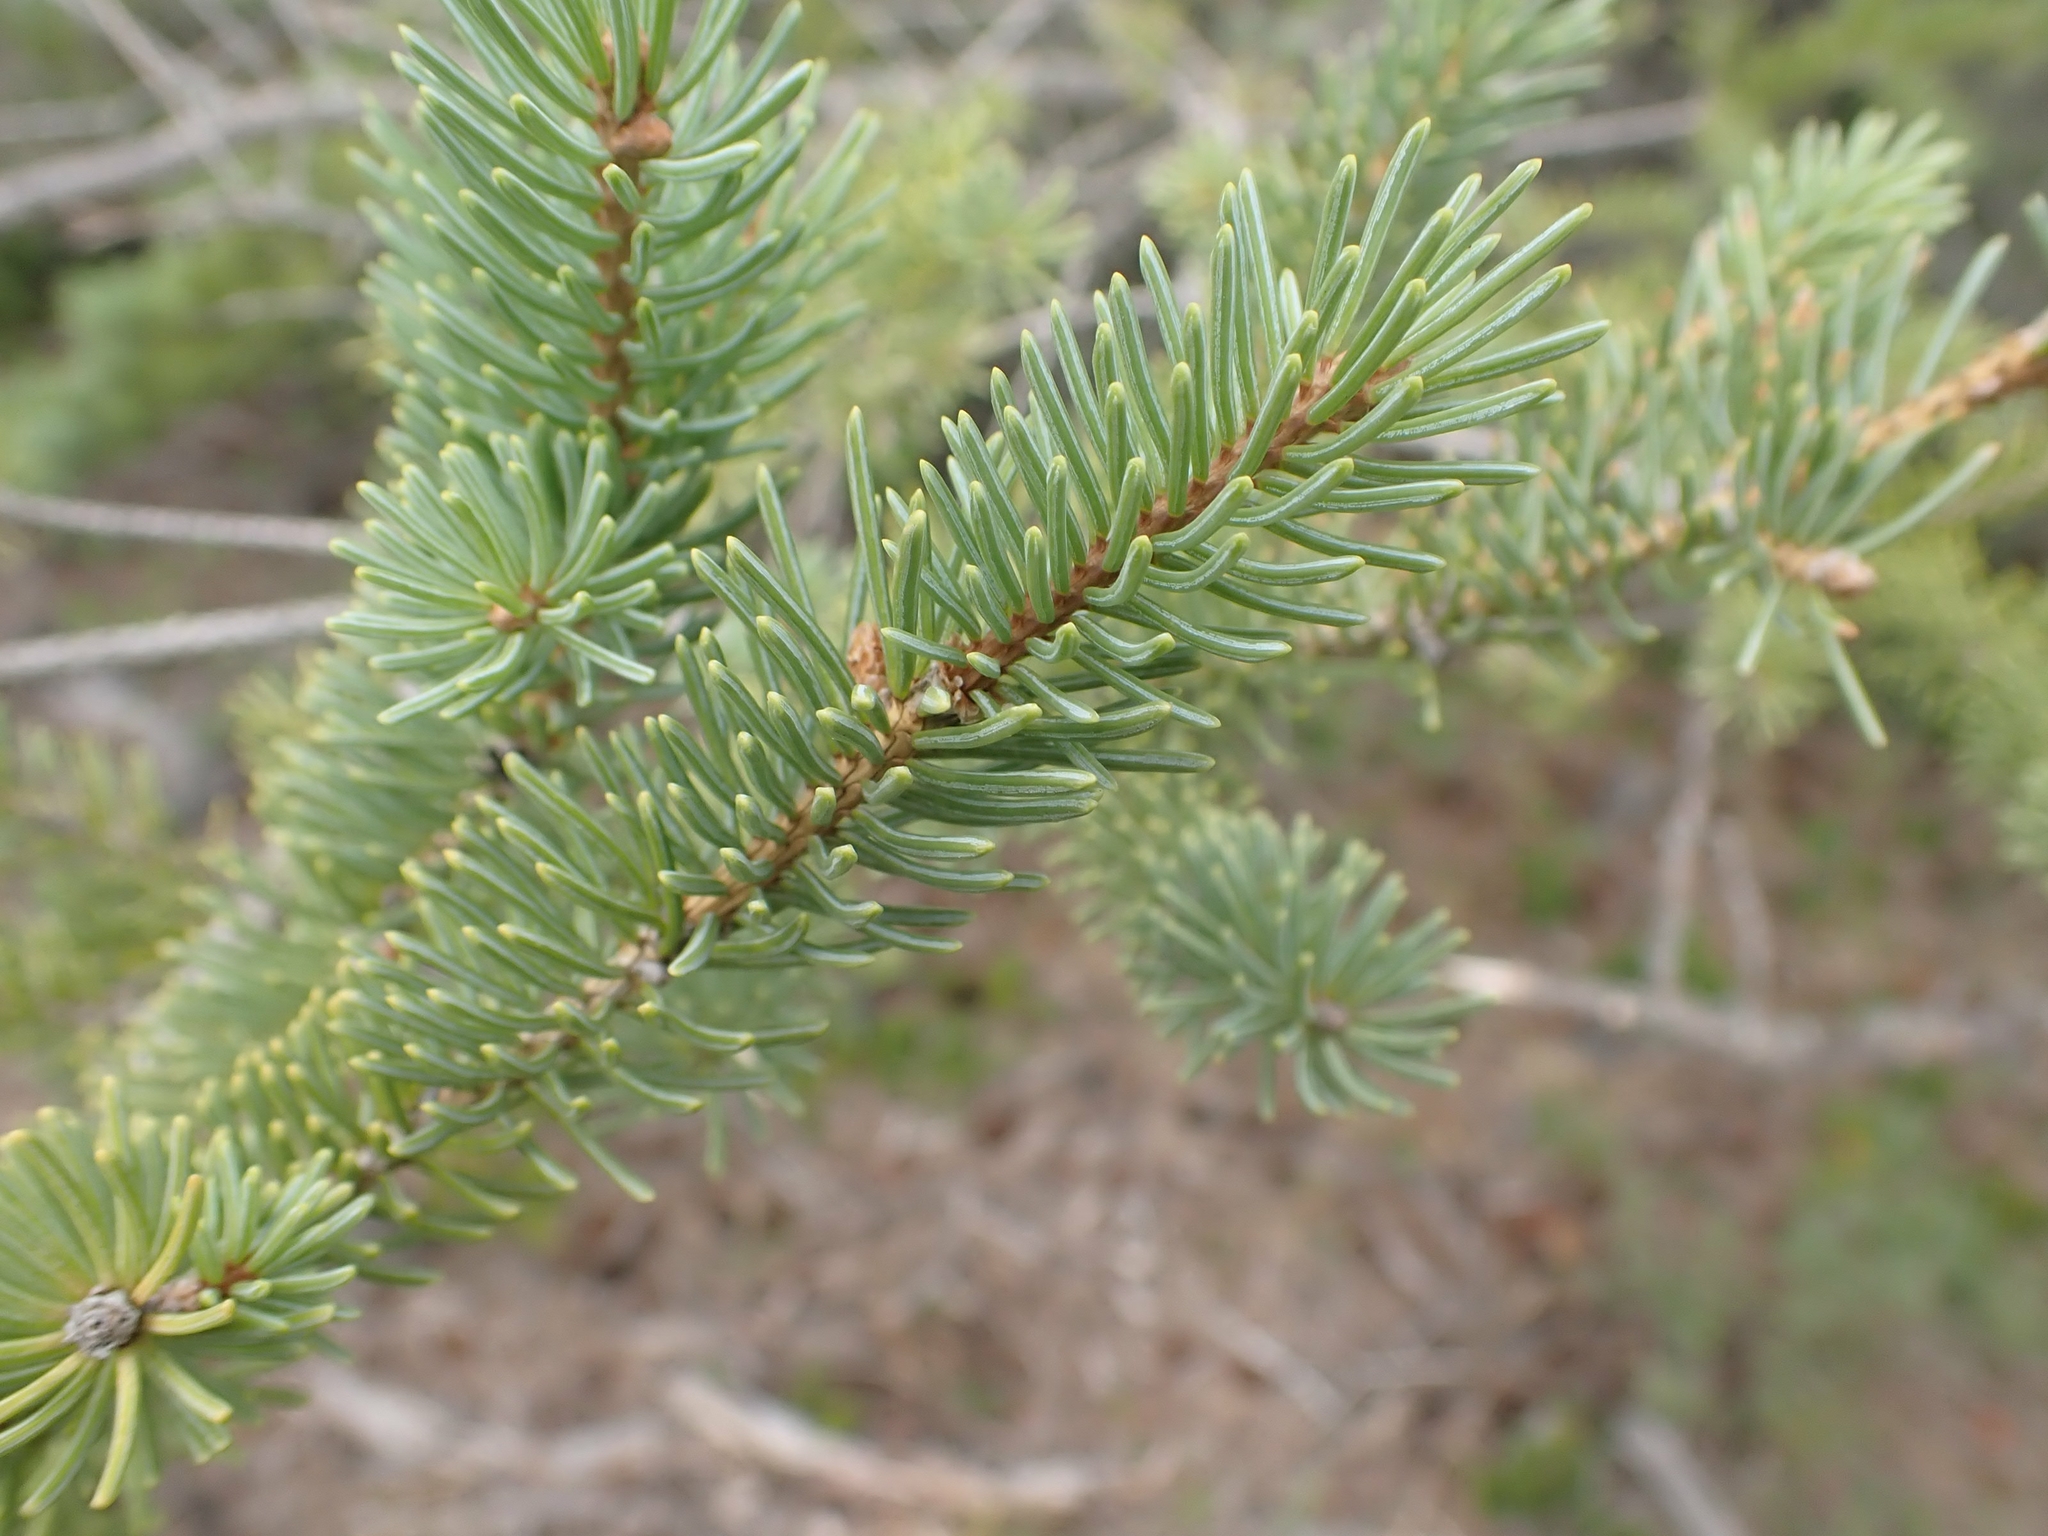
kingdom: Plantae
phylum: Tracheophyta
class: Pinopsida
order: Pinales
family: Pinaceae
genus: Picea
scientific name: Picea glauca
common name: White spruce
